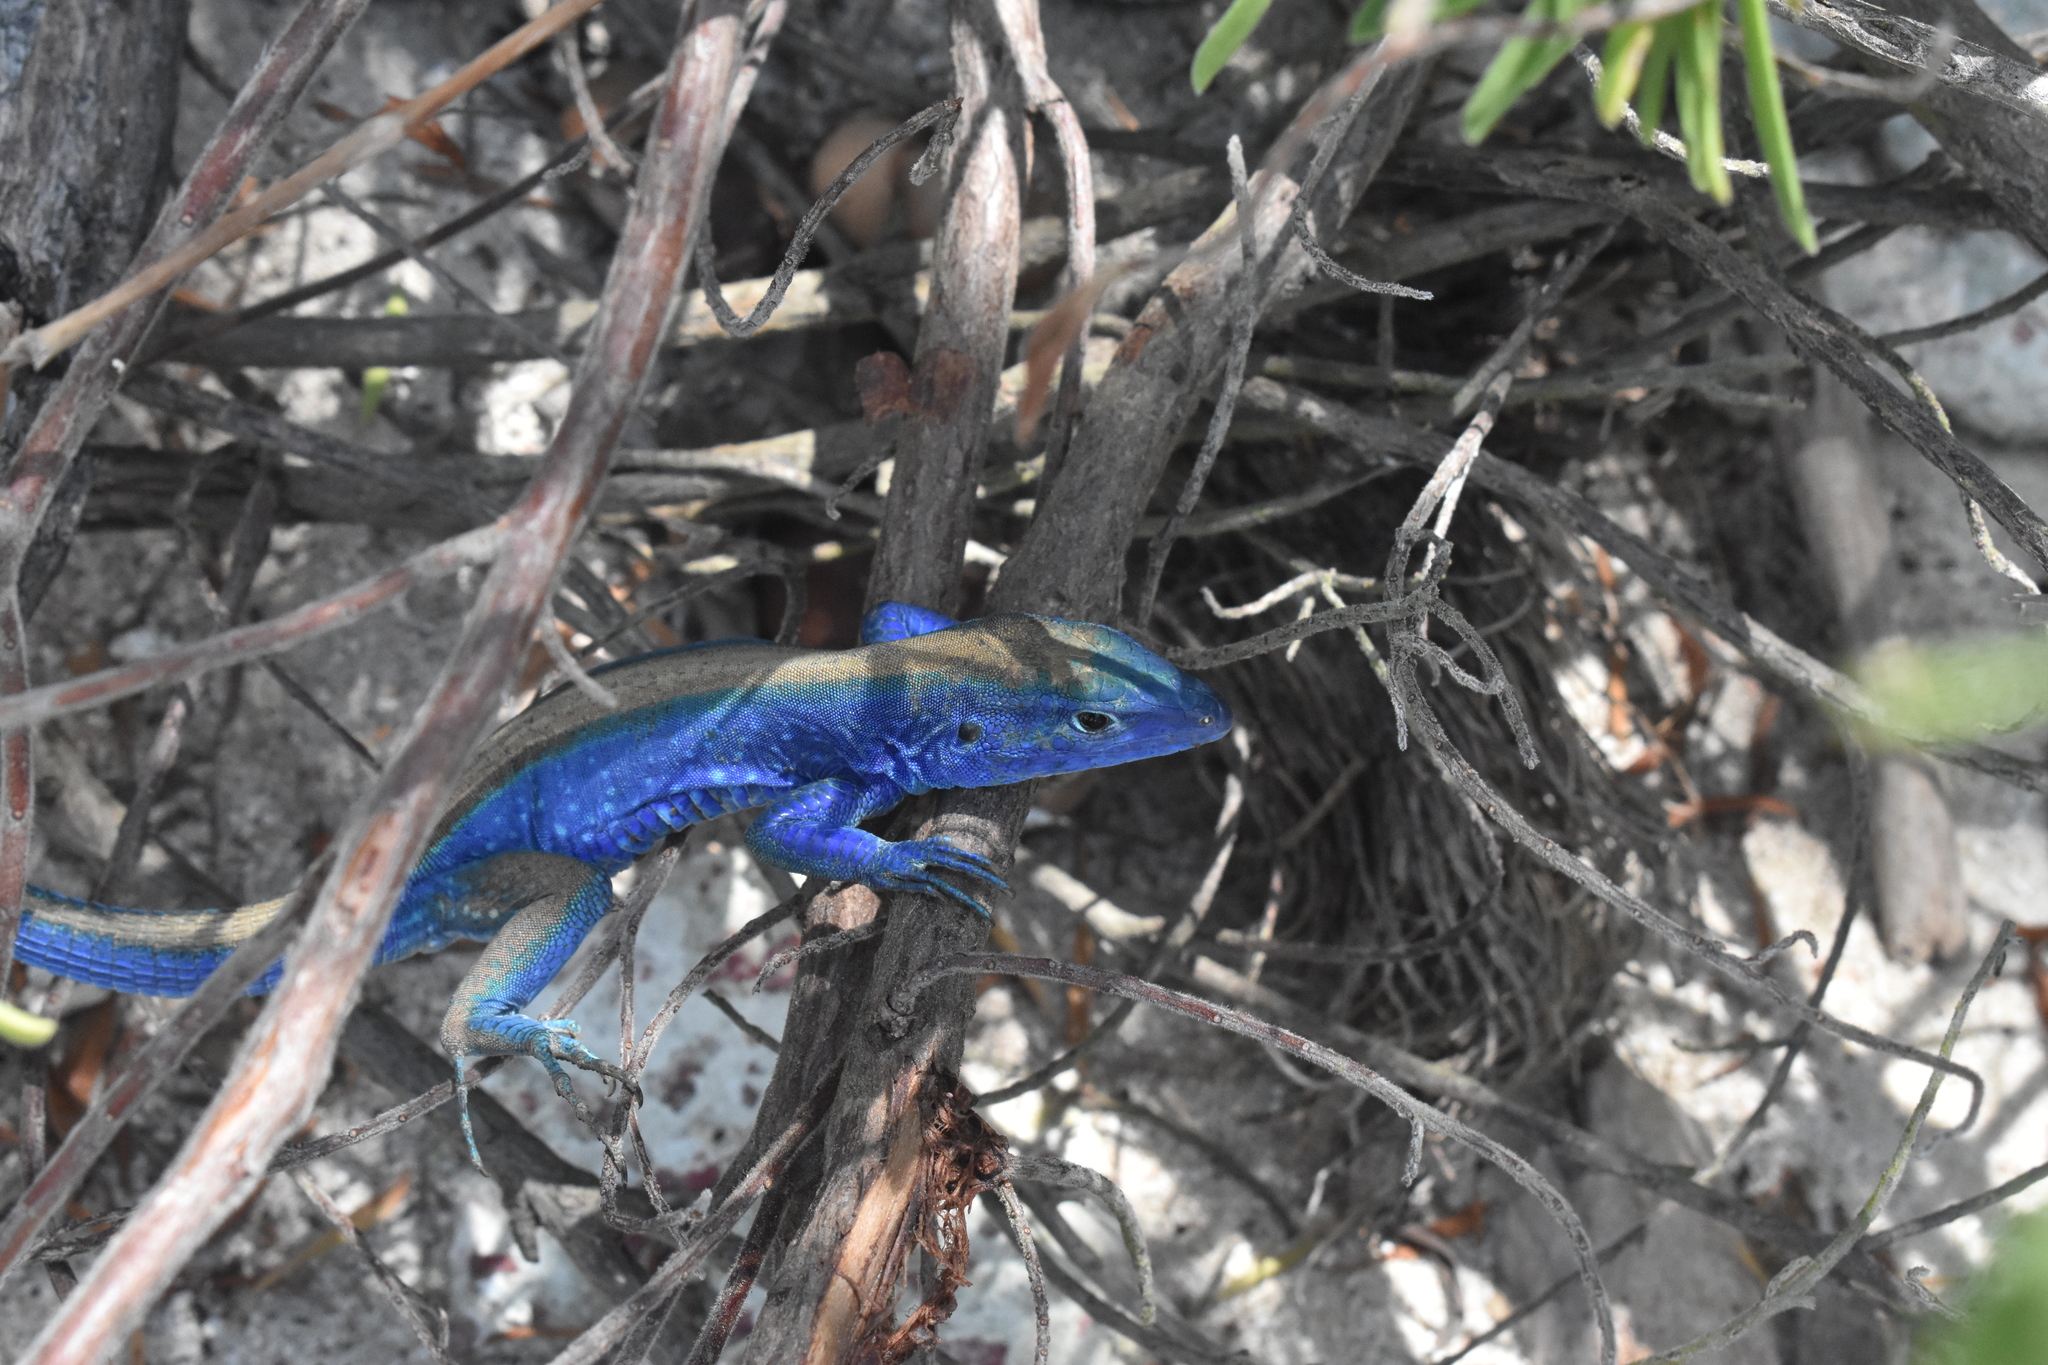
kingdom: Animalia
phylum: Chordata
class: Squamata
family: Teiidae
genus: Cnemidophorus
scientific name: Cnemidophorus espeuti
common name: Rainbow lizard
